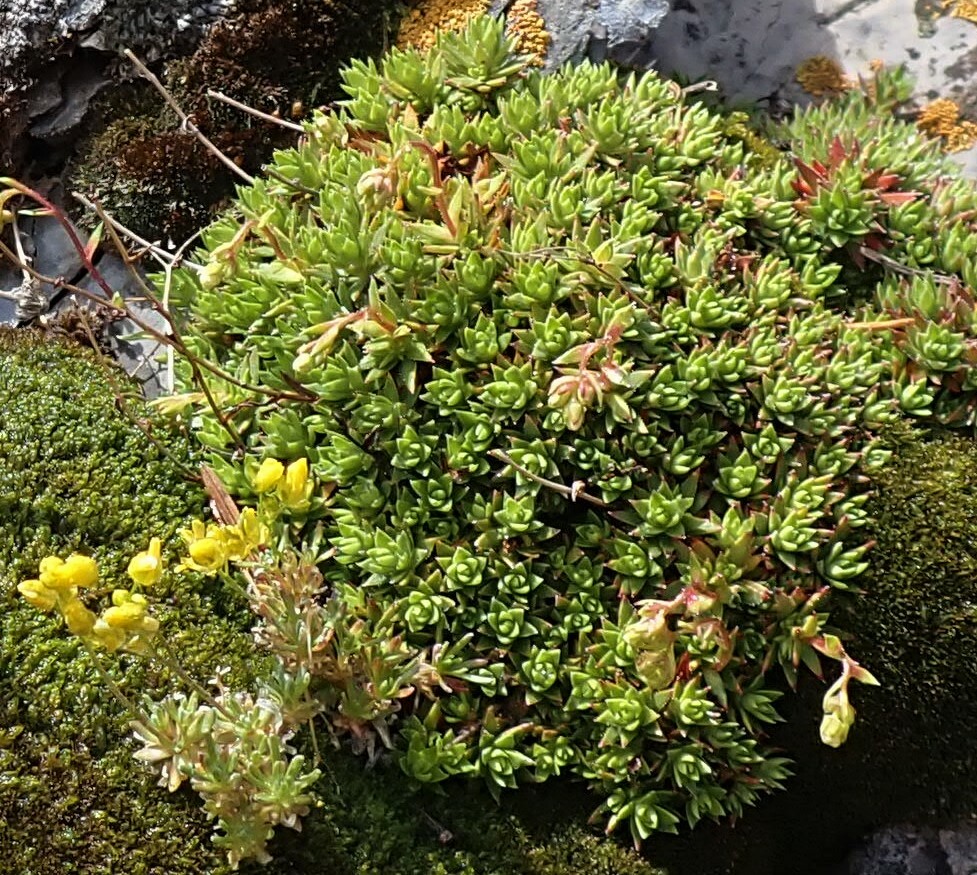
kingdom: Plantae
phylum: Tracheophyta
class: Magnoliopsida
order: Saxifragales
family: Saxifragaceae
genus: Saxifraga
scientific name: Saxifraga bronchialis
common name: Matted saxifrage
